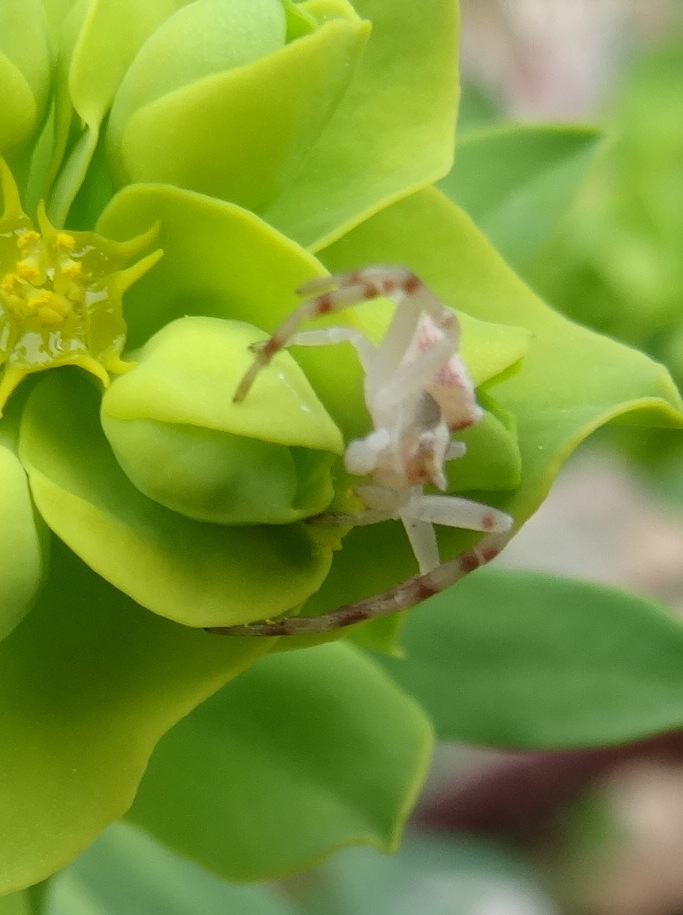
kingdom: Animalia
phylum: Arthropoda
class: Arachnida
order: Araneae
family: Thomisidae
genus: Thomisus
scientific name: Thomisus onustus
